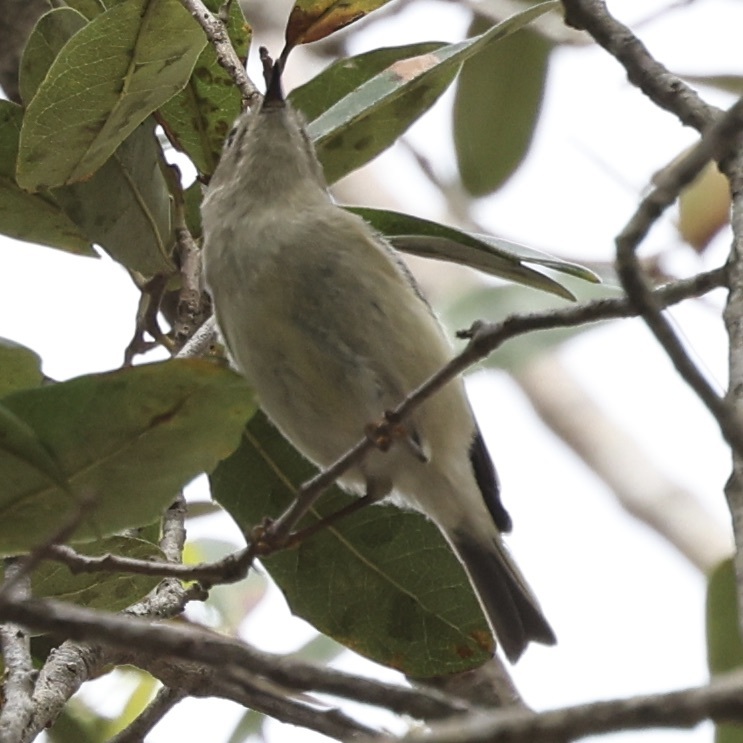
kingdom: Animalia
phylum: Chordata
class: Aves
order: Passeriformes
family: Regulidae
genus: Regulus
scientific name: Regulus calendula
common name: Ruby-crowned kinglet
